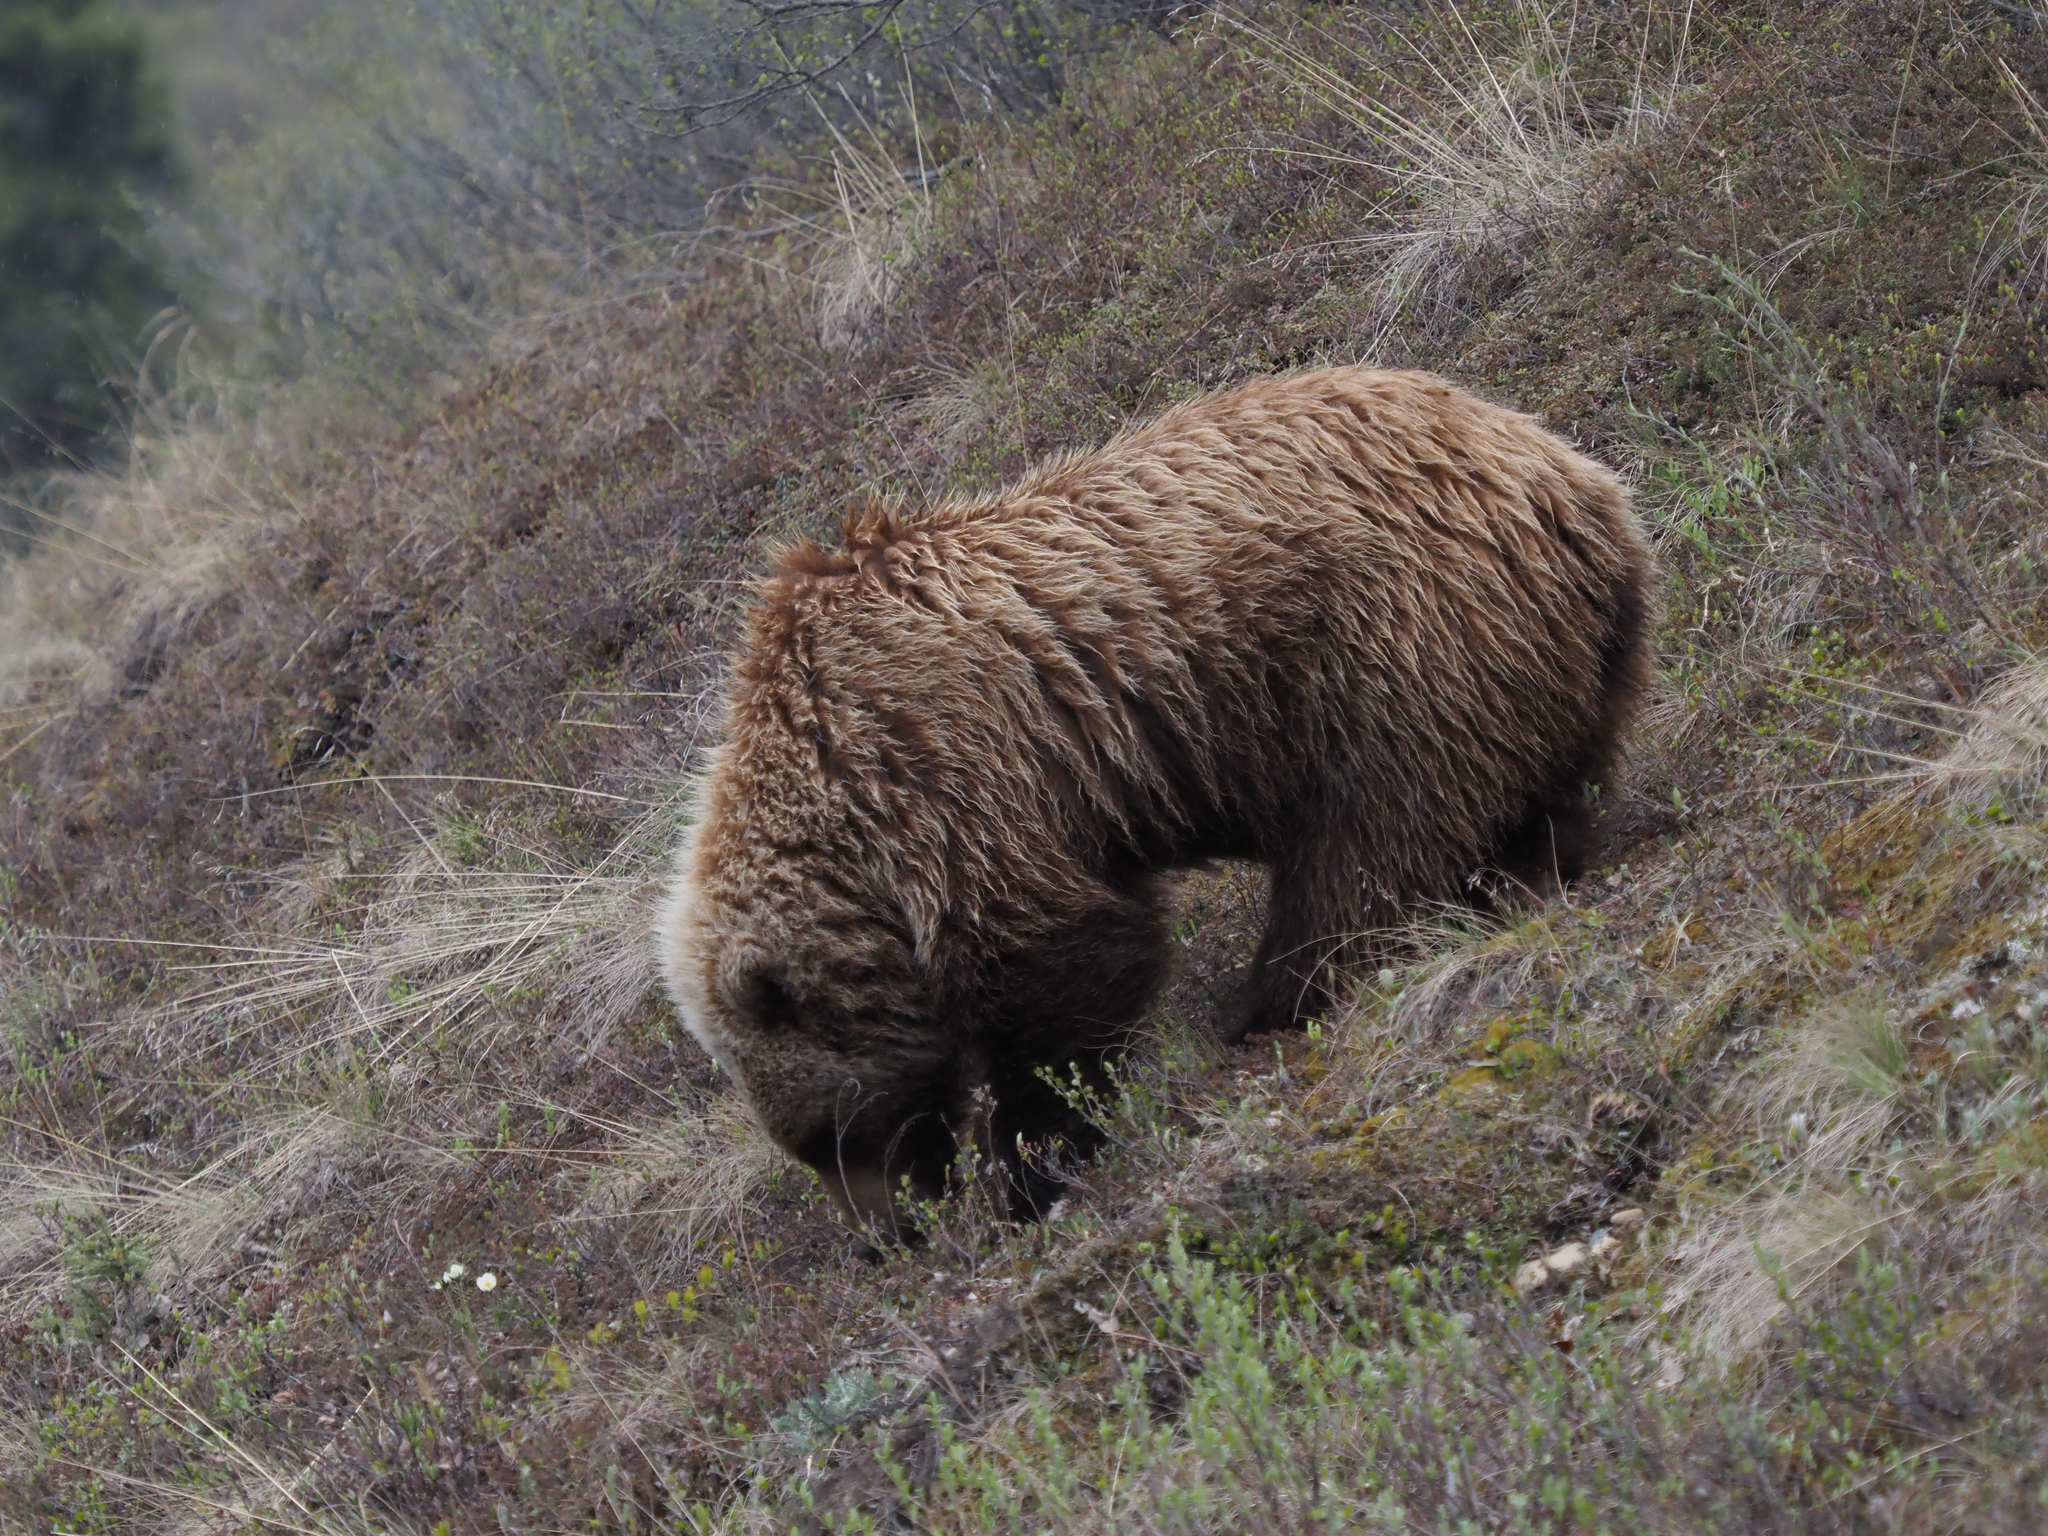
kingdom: Animalia
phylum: Chordata
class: Mammalia
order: Carnivora
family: Ursidae
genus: Ursus
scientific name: Ursus arctos
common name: Brown bear
